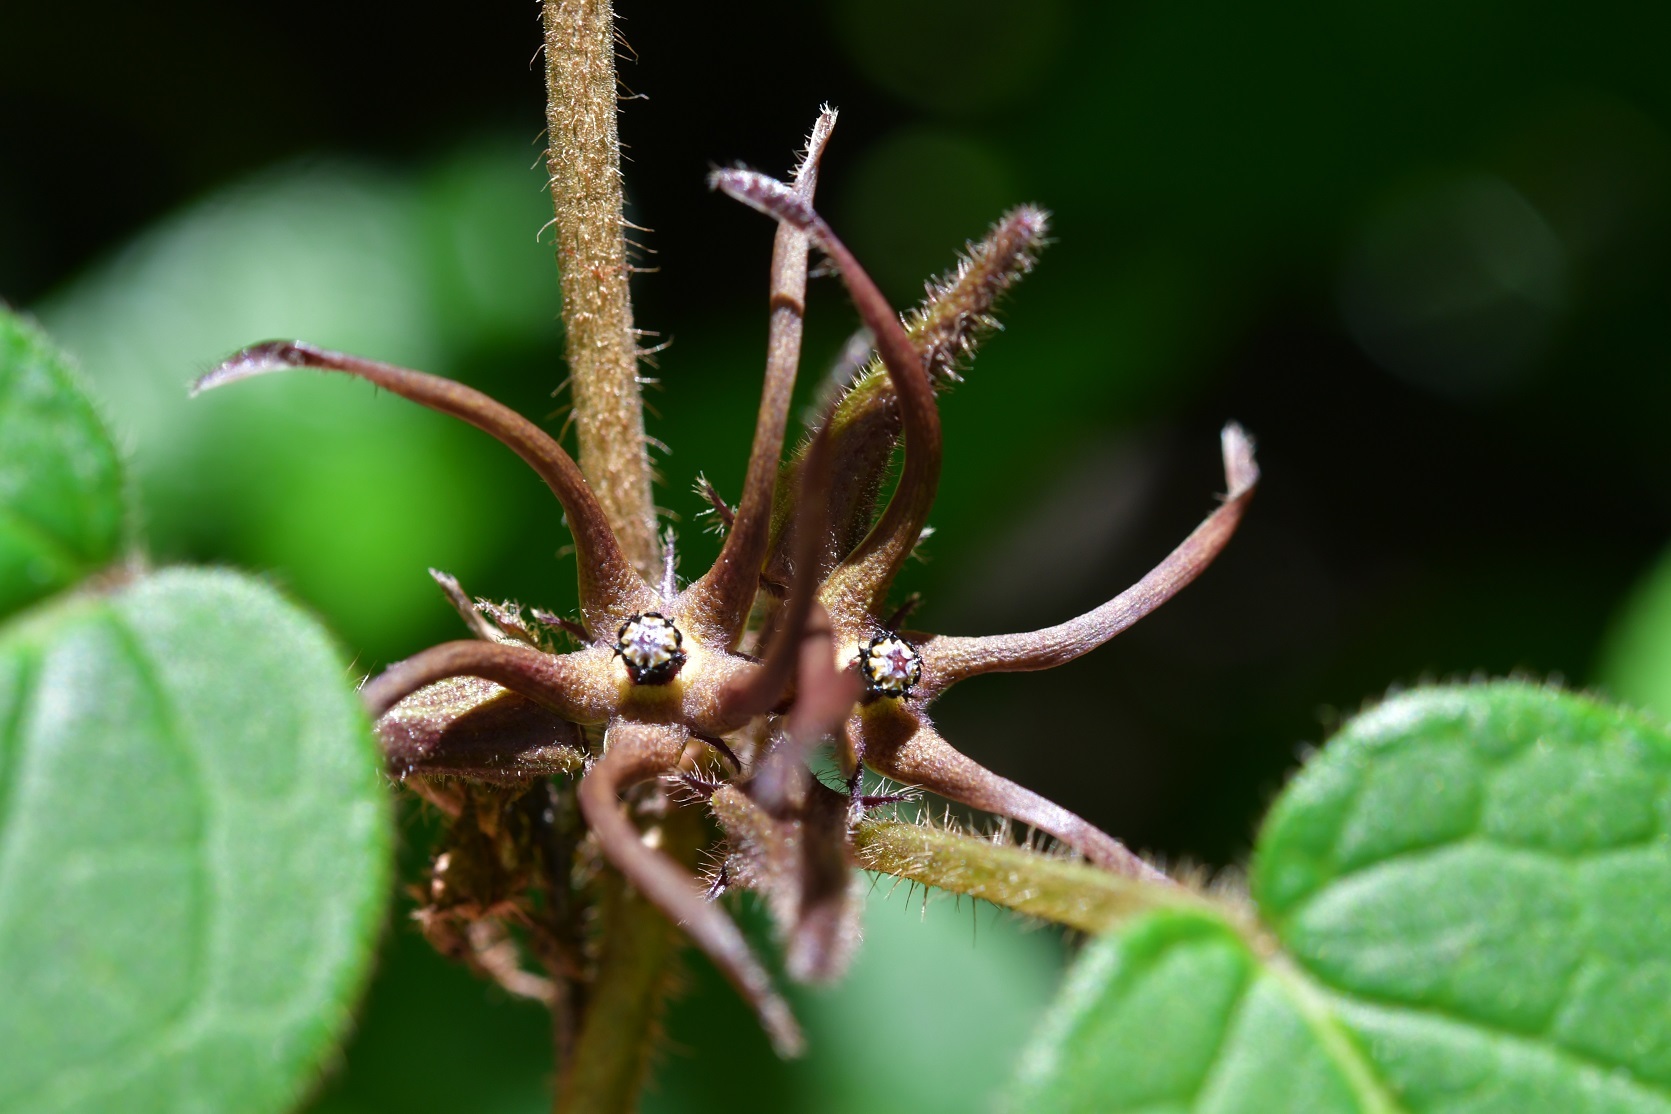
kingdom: Plantae
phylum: Tracheophyta
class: Magnoliopsida
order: Gentianales
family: Apocynaceae
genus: Matelea
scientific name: Matelea medusae
